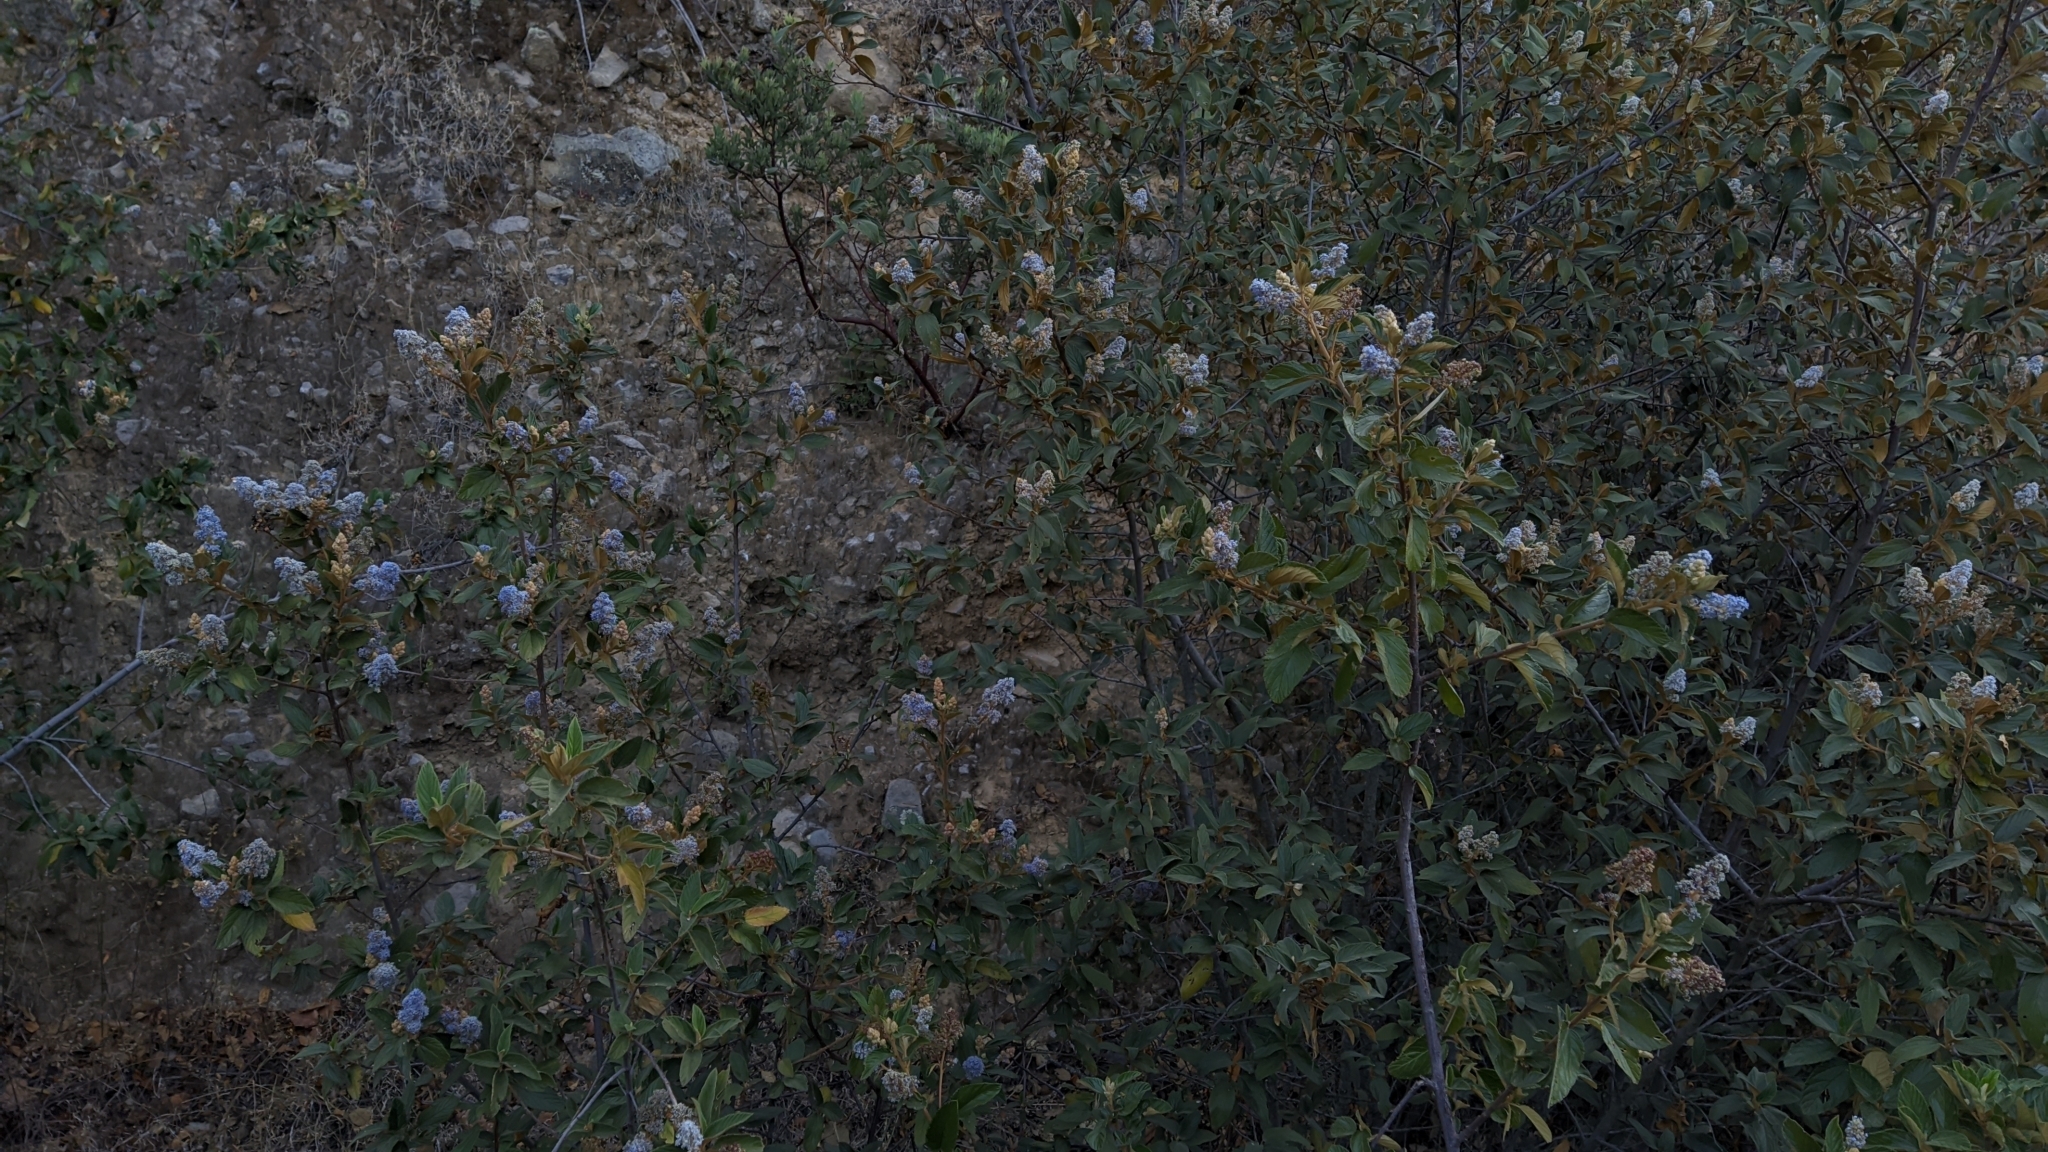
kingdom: Plantae
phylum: Tracheophyta
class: Magnoliopsida
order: Rosales
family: Rhamnaceae
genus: Ceanothus
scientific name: Ceanothus caeruleus
